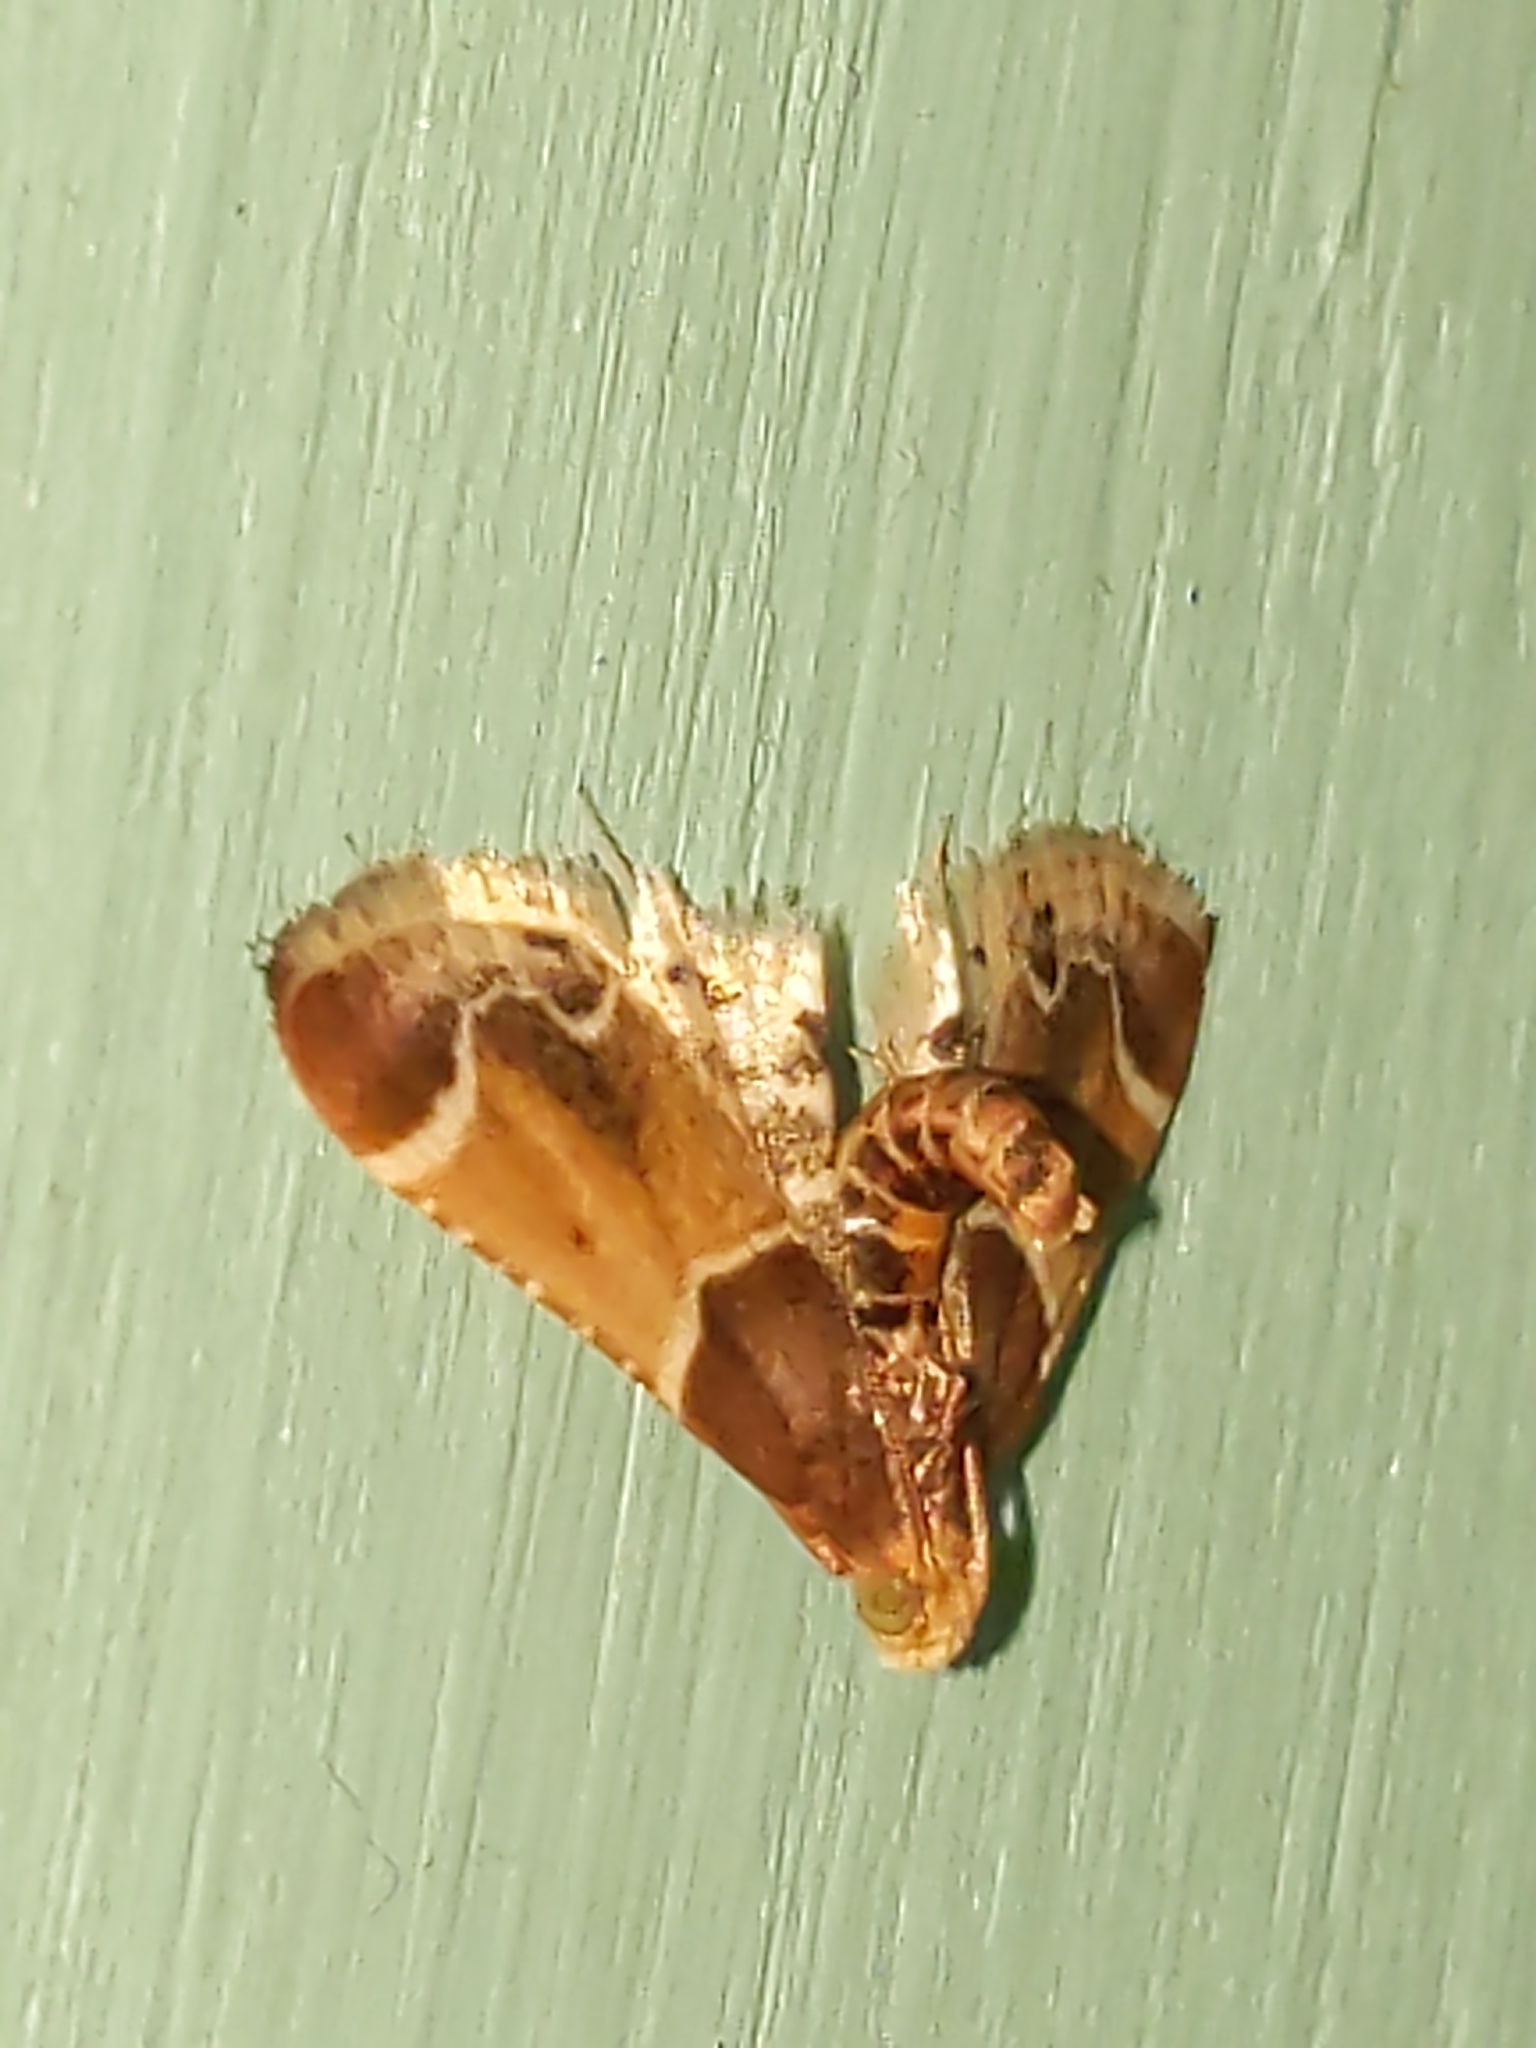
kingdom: Animalia
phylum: Arthropoda
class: Insecta
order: Lepidoptera
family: Pyralidae
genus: Pyralis
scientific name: Pyralis farinalis
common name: Meal moth
